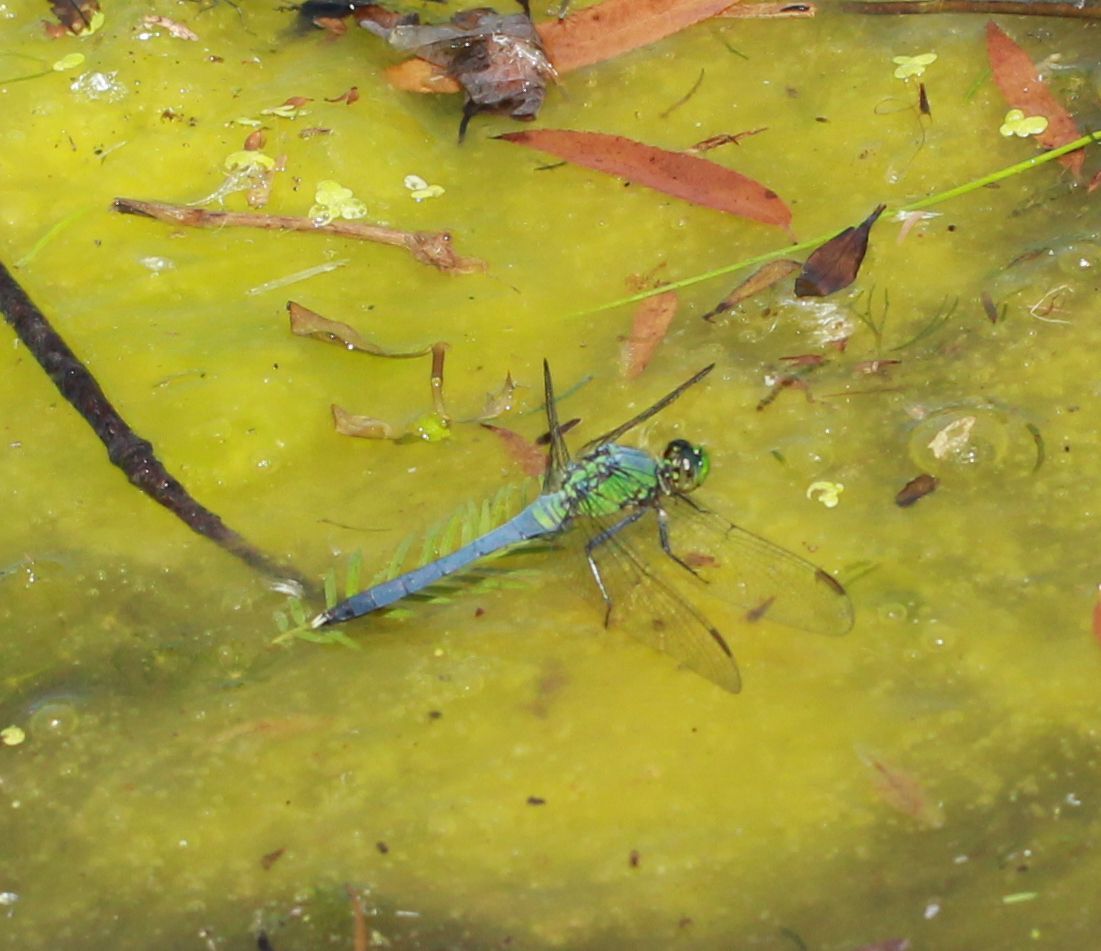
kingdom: Animalia
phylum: Arthropoda
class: Insecta
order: Odonata
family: Libellulidae
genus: Erythemis
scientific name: Erythemis simplicicollis
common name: Eastern pondhawk
